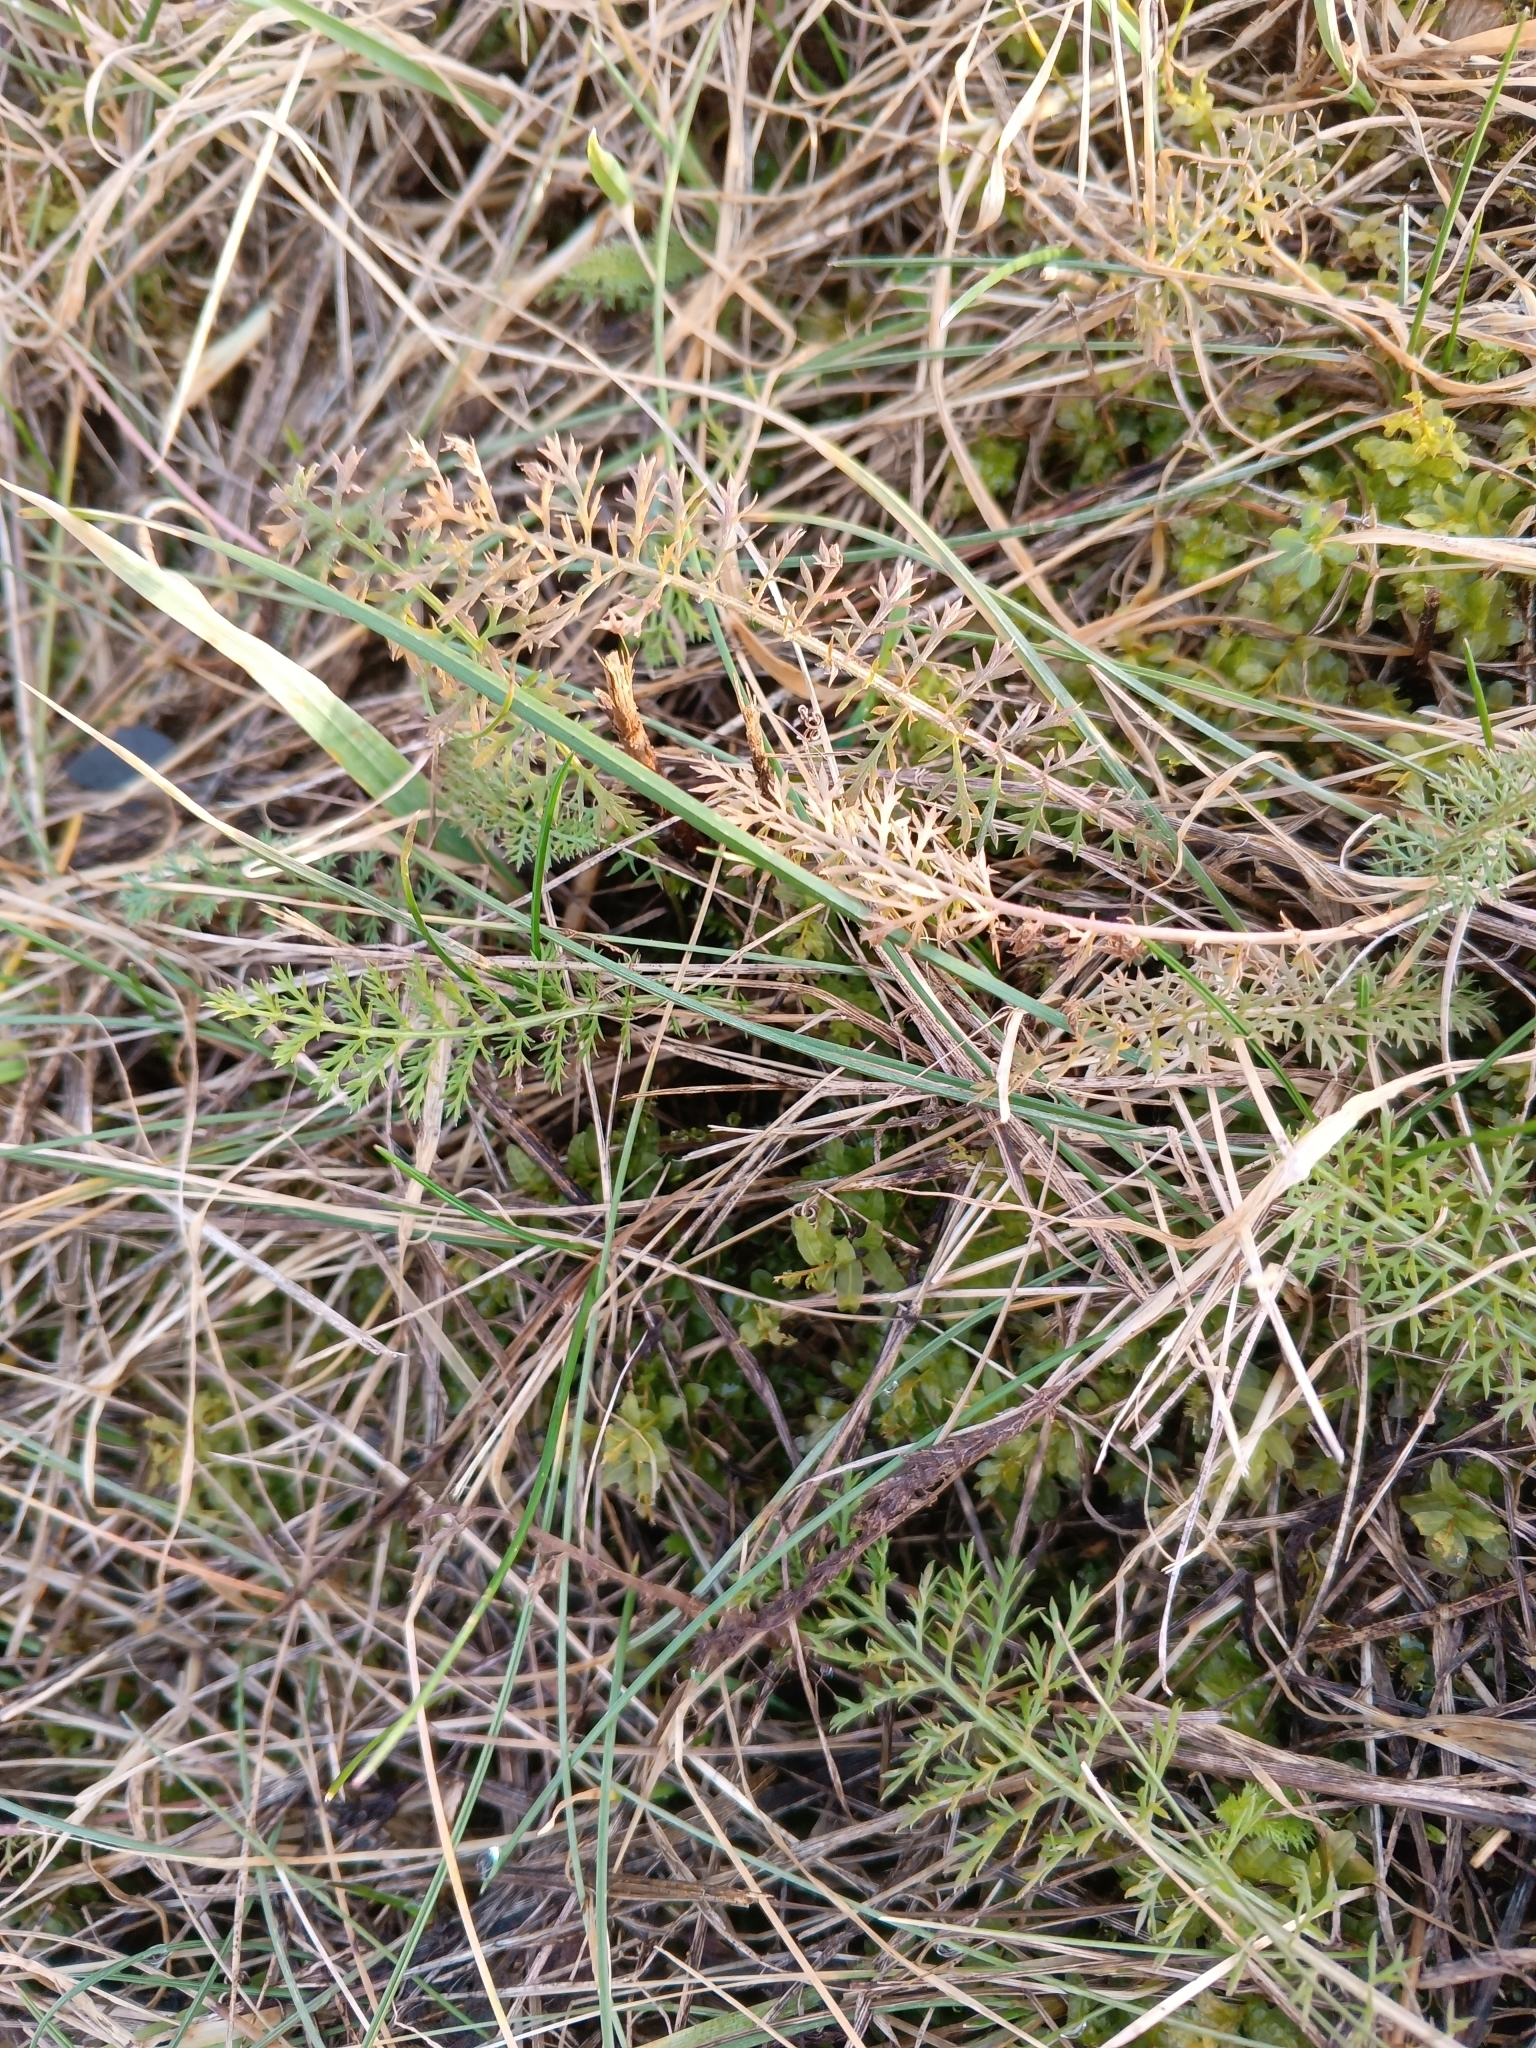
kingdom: Plantae
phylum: Tracheophyta
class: Magnoliopsida
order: Asterales
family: Asteraceae
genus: Achillea
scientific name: Achillea millefolium
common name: Yarrow
